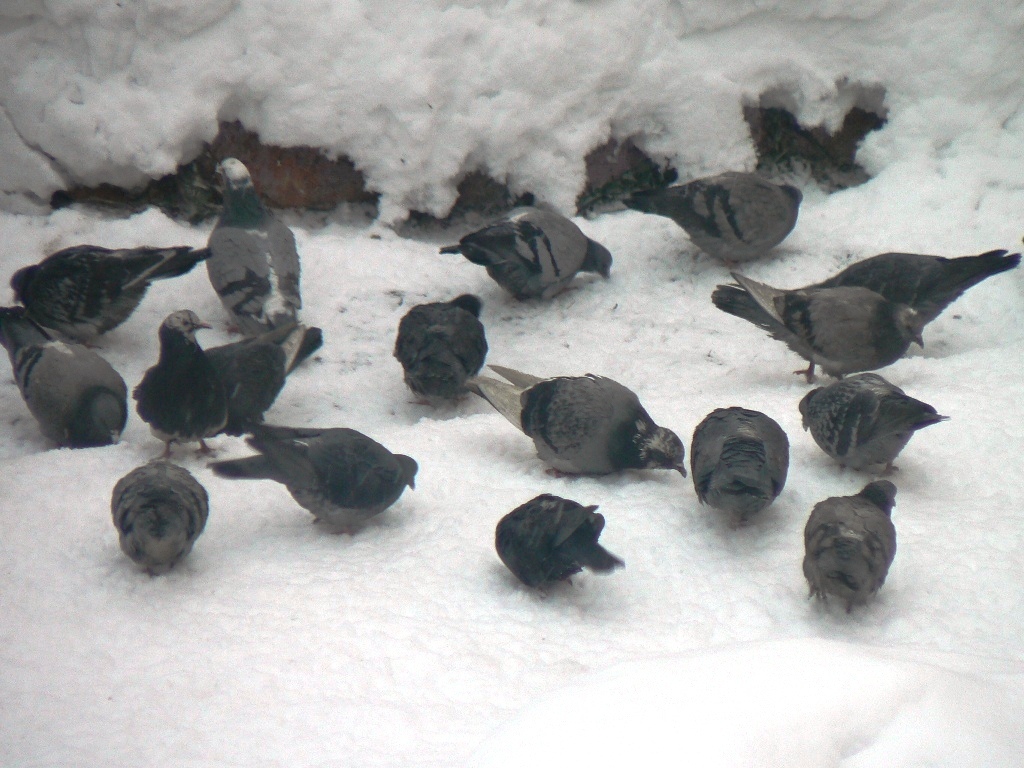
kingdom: Animalia
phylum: Chordata
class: Aves
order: Columbiformes
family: Columbidae
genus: Columba
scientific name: Columba livia
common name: Rock pigeon
